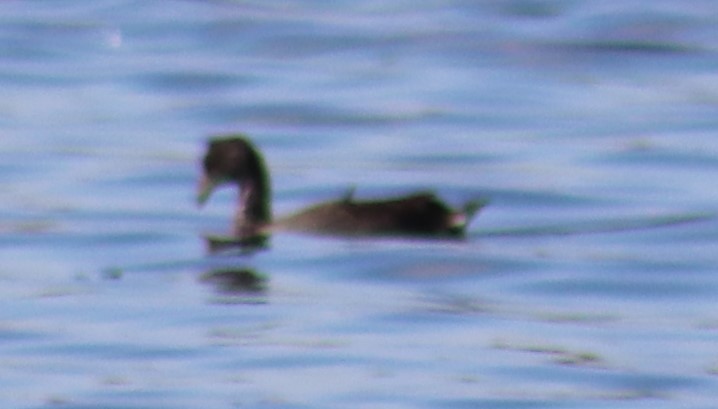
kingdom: Animalia
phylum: Chordata
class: Aves
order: Gruiformes
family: Rallidae
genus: Fulica
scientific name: Fulica americana
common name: American coot
